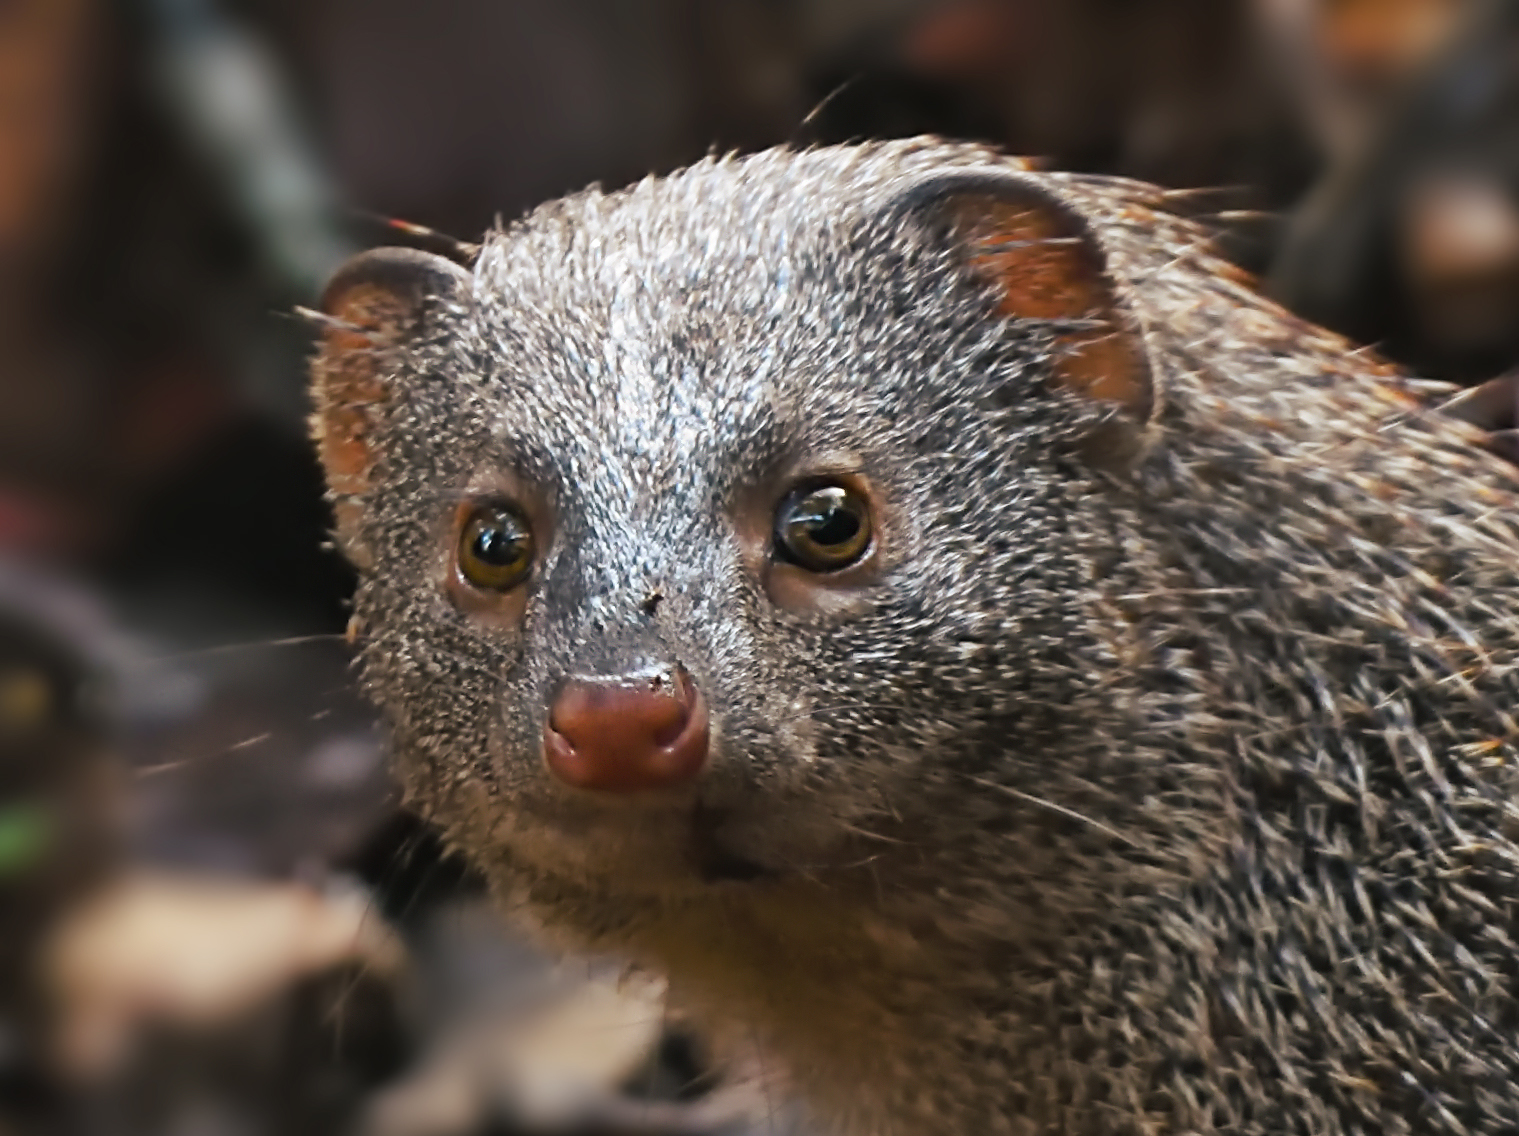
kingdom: Animalia
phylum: Chordata
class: Mammalia
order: Carnivora
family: Herpestidae
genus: Herpestes
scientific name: Herpestes edwardsi
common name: Indian gray mongoose
